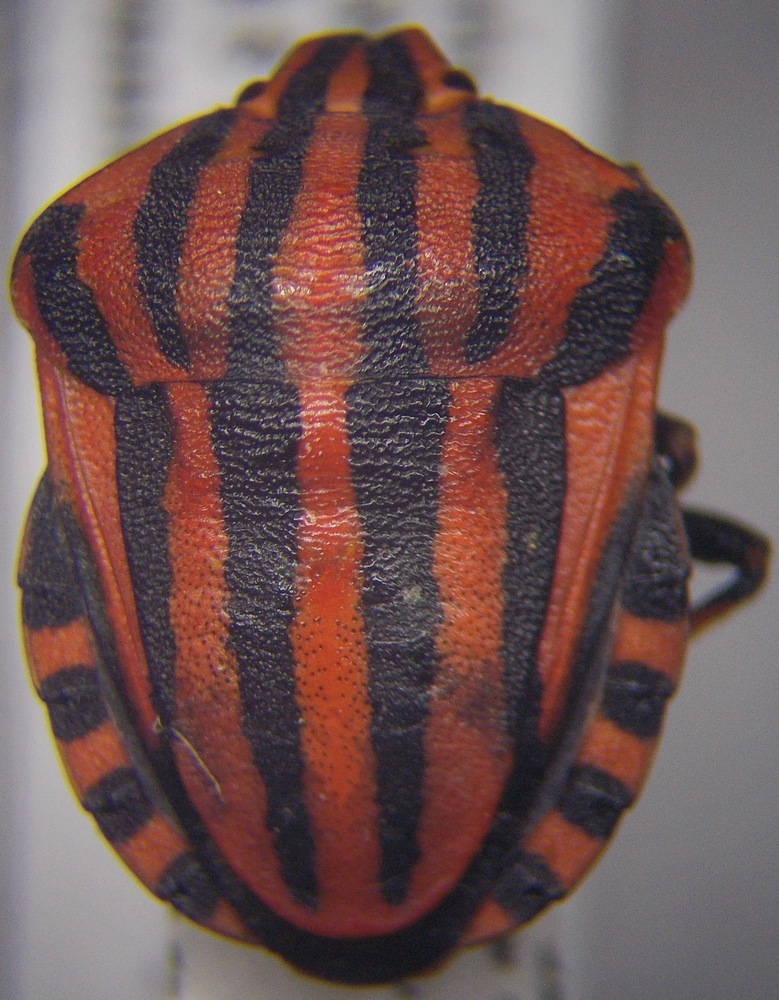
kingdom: Animalia
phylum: Arthropoda
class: Insecta
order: Hemiptera
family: Pentatomidae
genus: Graphosoma
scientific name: Graphosoma italicum
